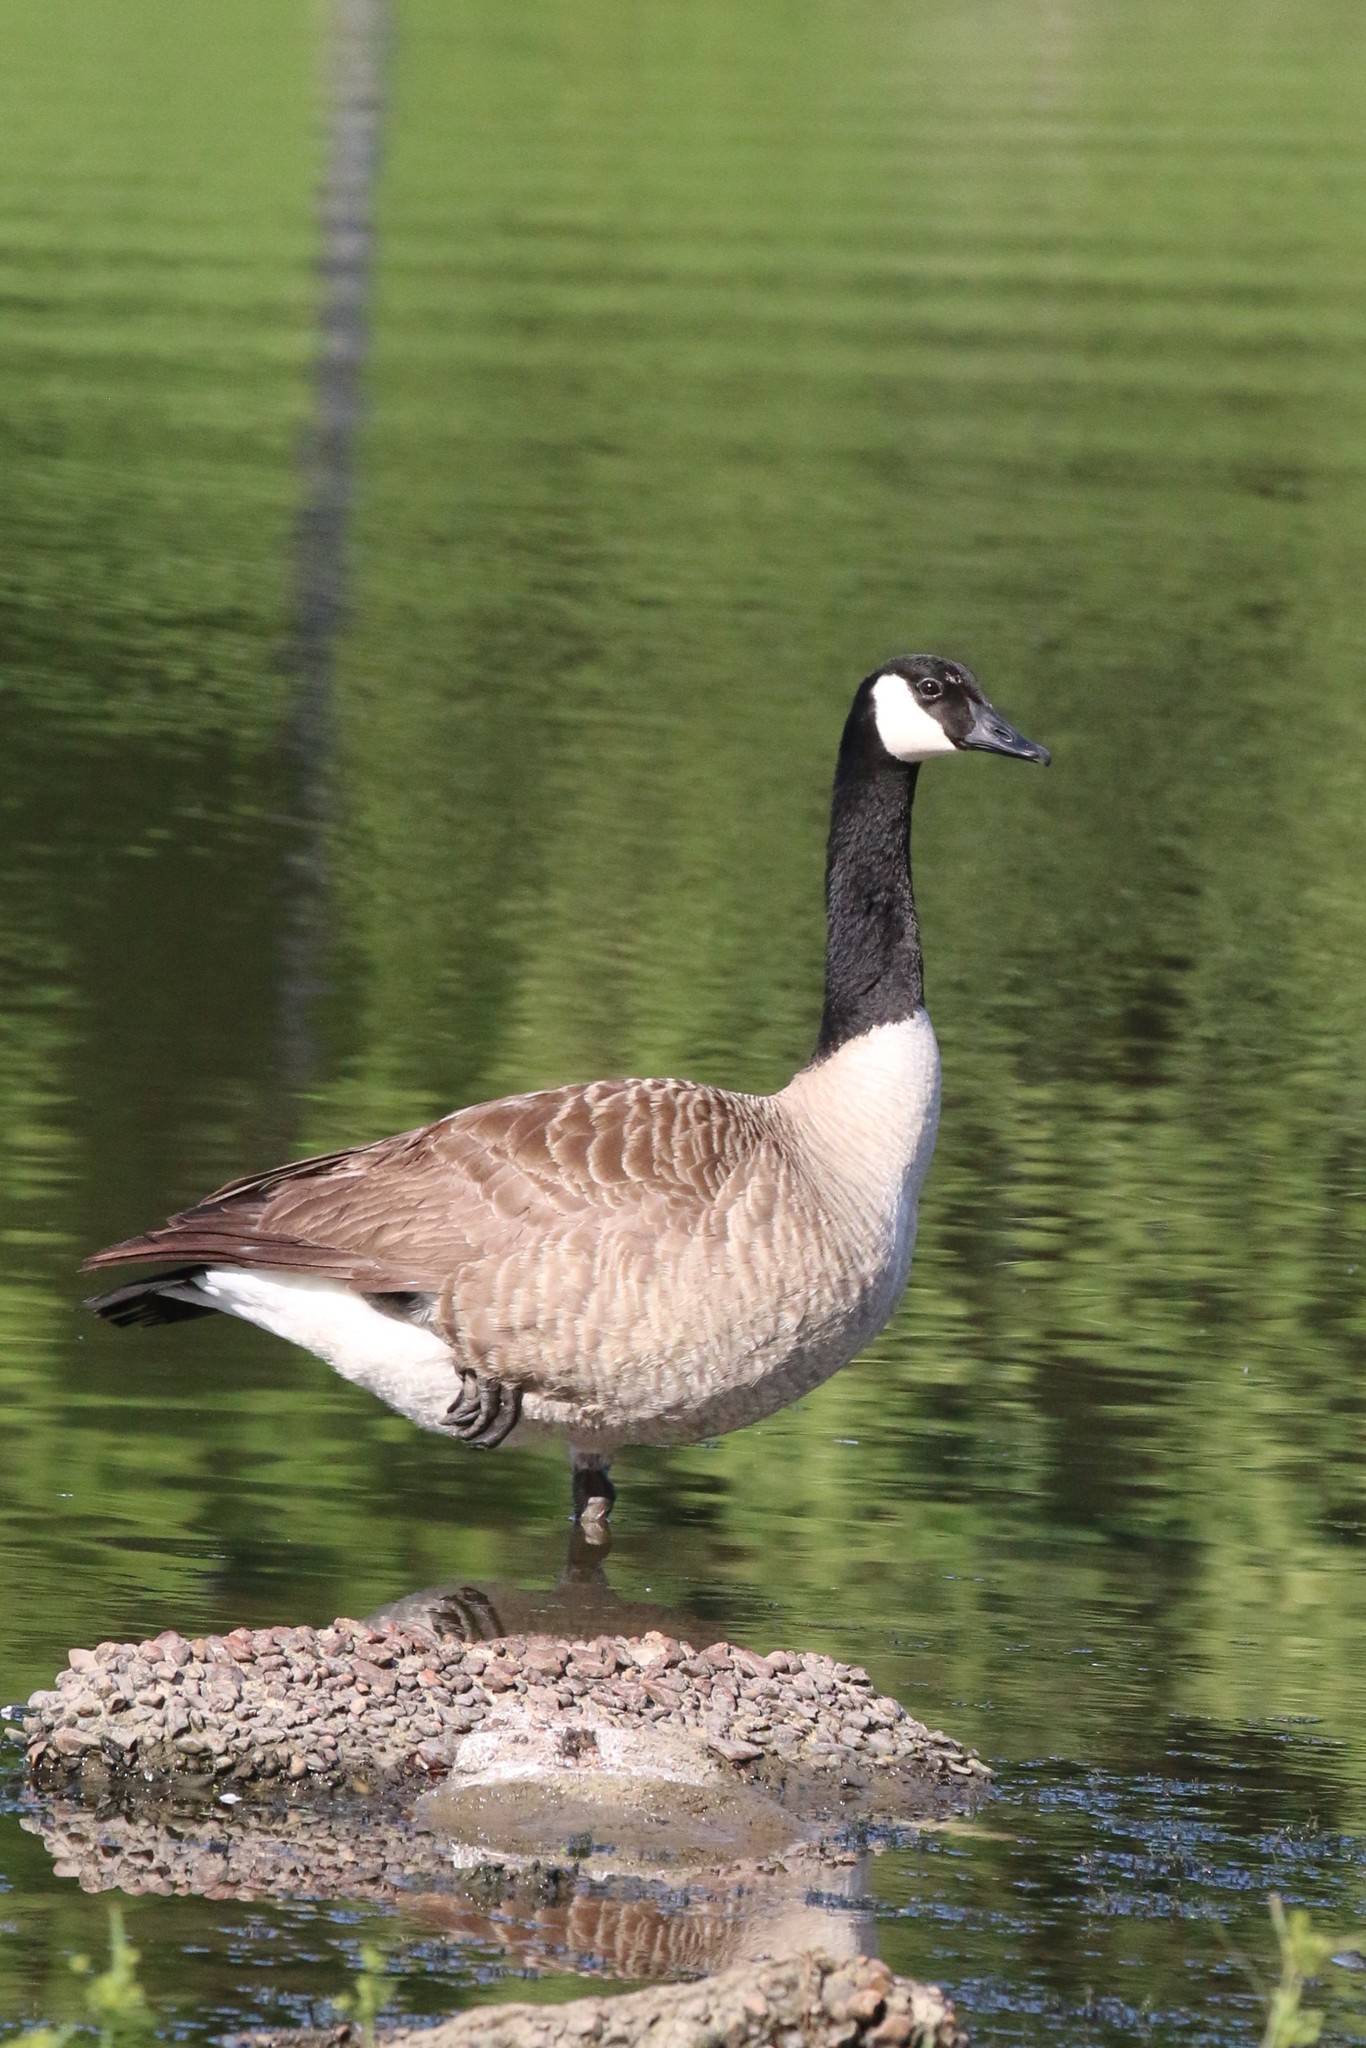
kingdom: Animalia
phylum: Chordata
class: Aves
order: Anseriformes
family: Anatidae
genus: Branta
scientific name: Branta canadensis
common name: Canada goose
